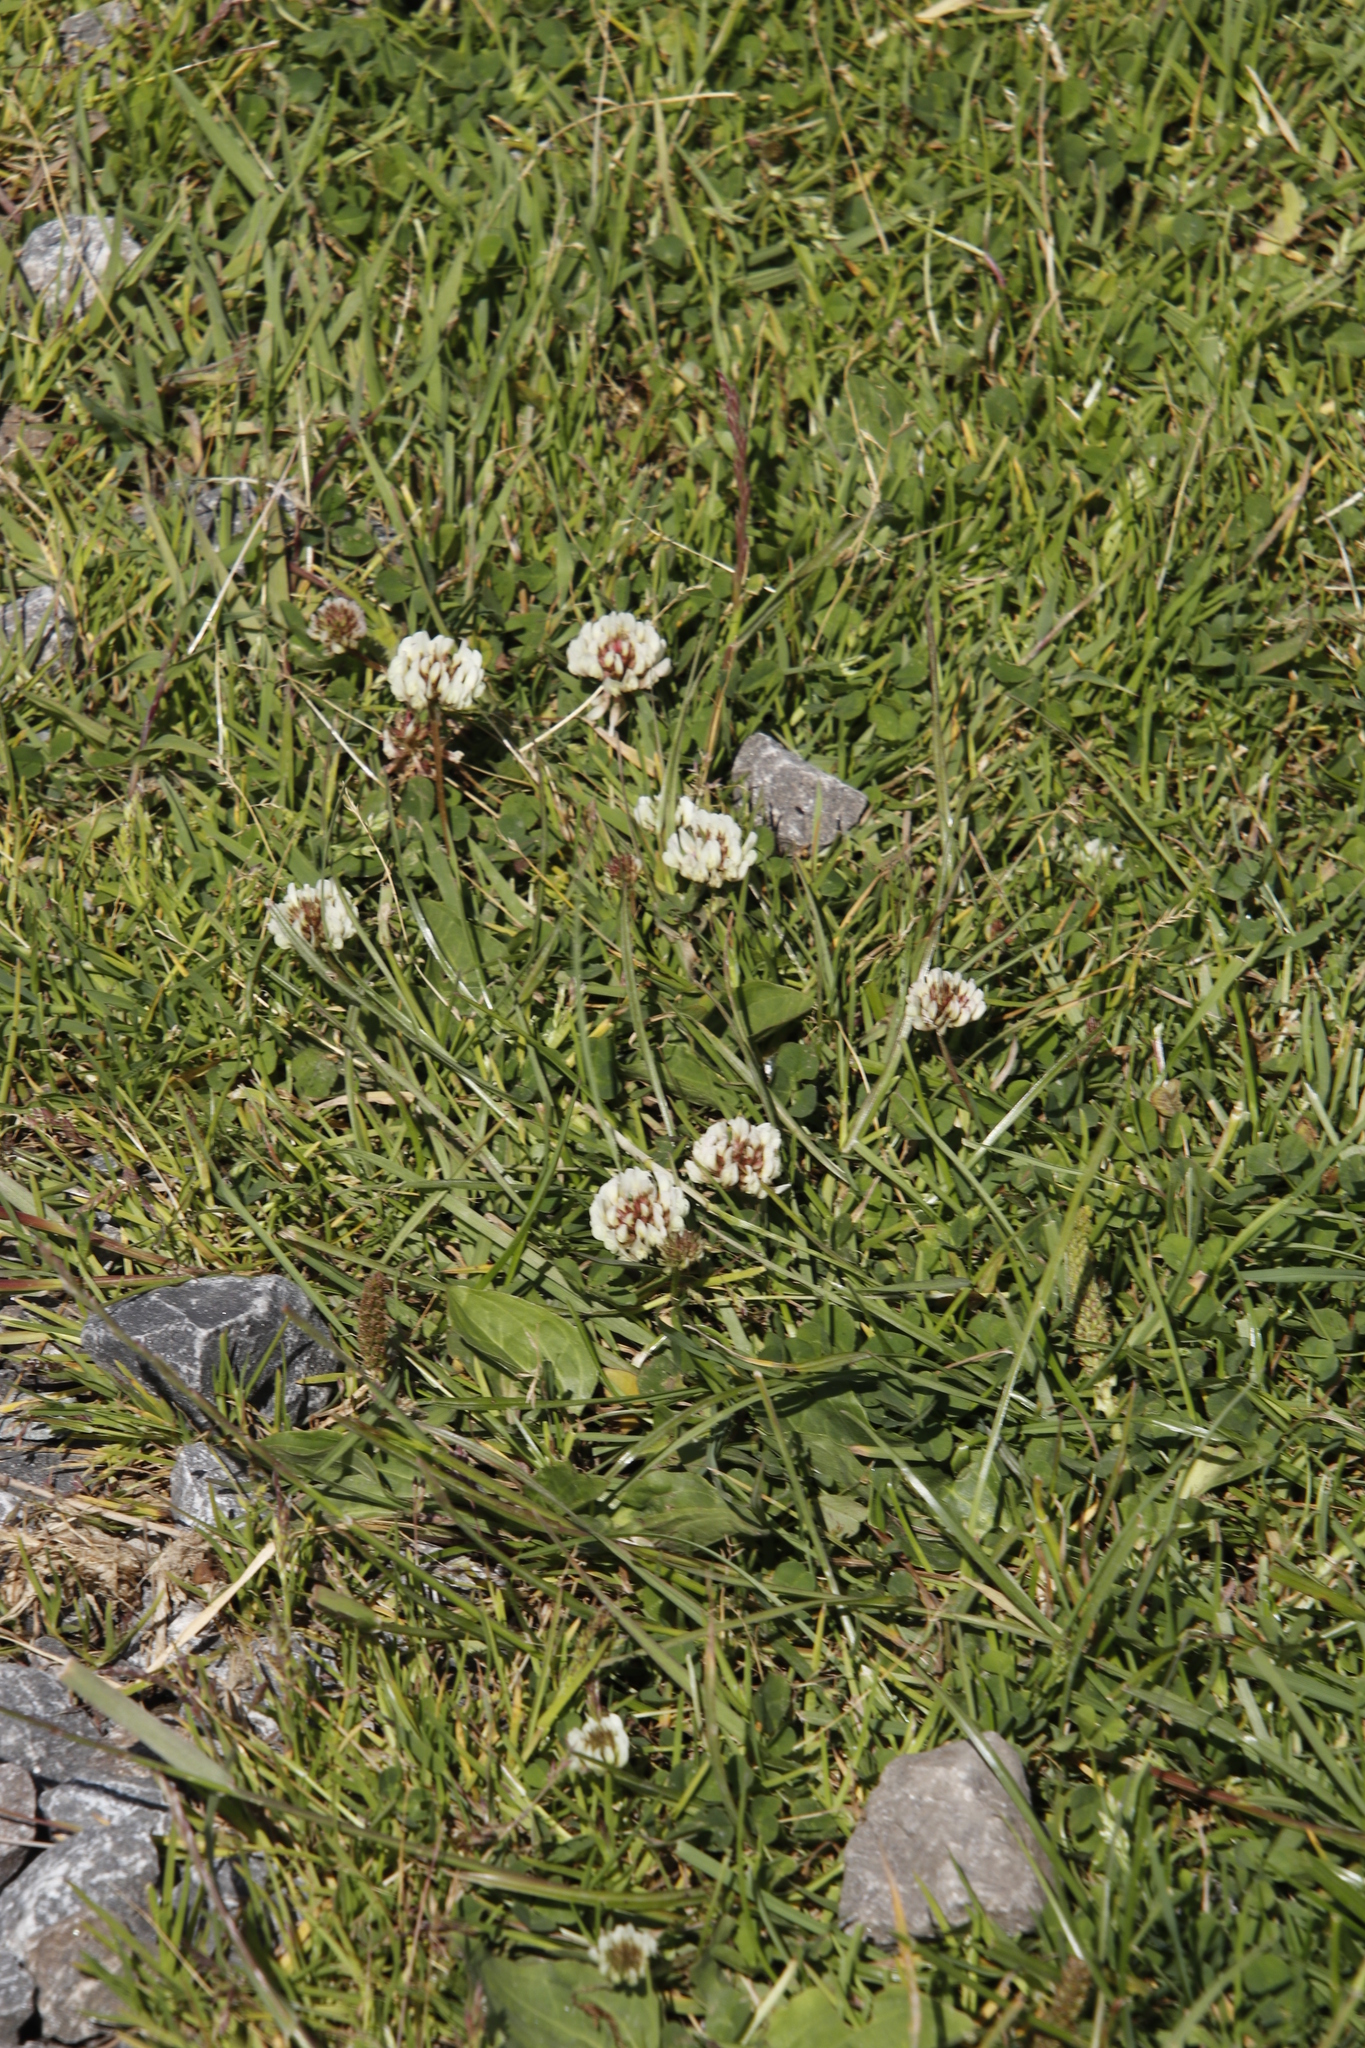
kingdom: Plantae
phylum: Tracheophyta
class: Magnoliopsida
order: Fabales
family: Fabaceae
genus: Trifolium
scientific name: Trifolium repens
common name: White clover
